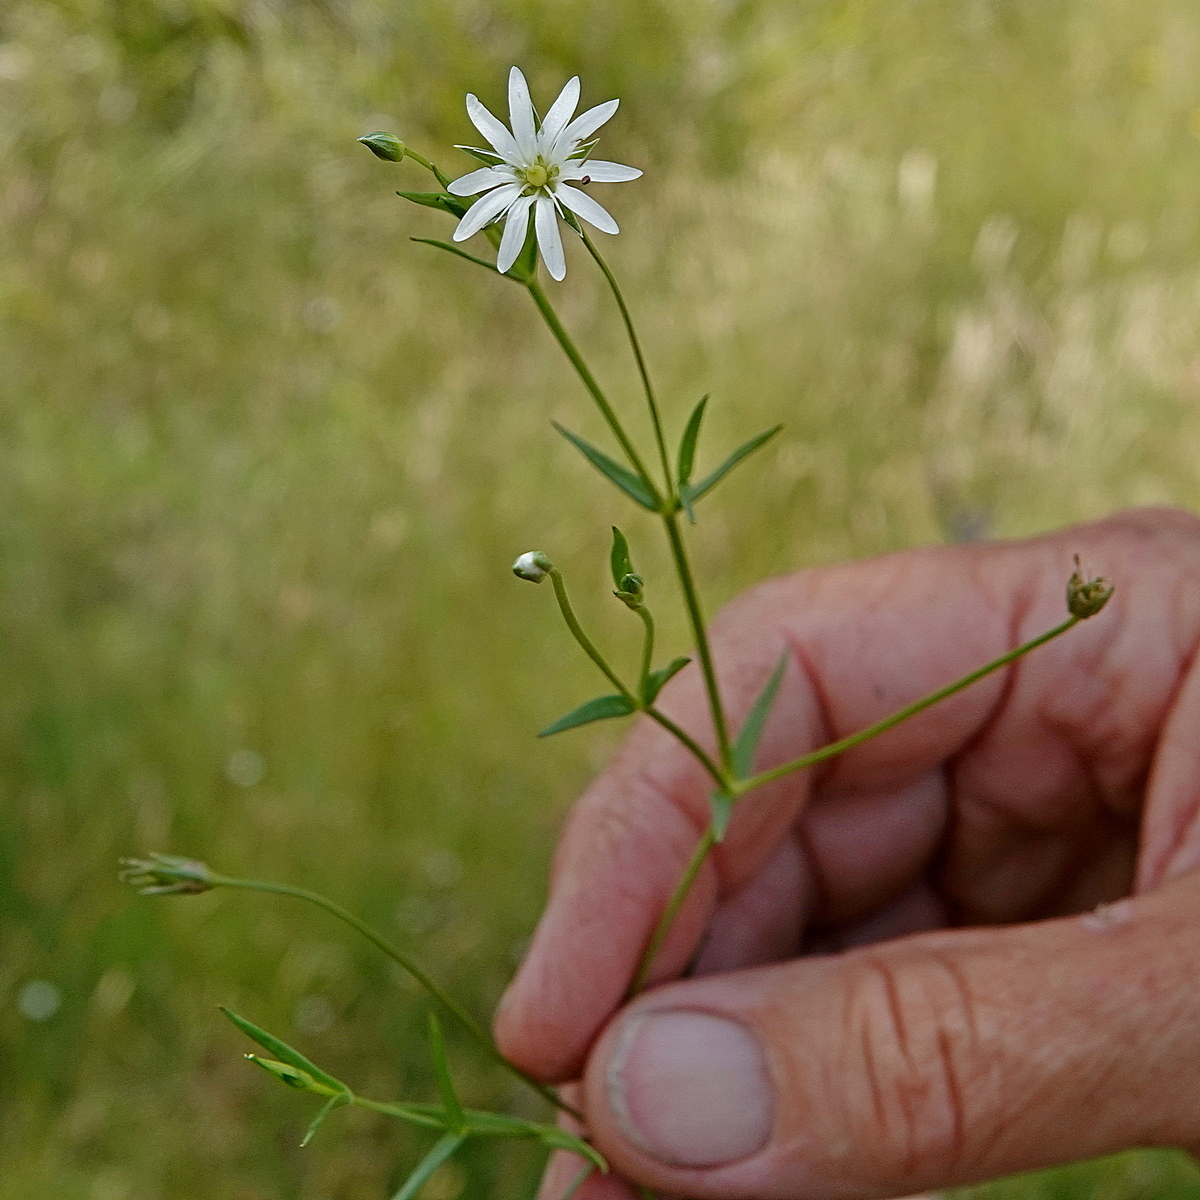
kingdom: Plantae
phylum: Tracheophyta
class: Magnoliopsida
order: Caryophyllales
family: Caryophyllaceae
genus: Stellaria
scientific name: Stellaria angustifolia
